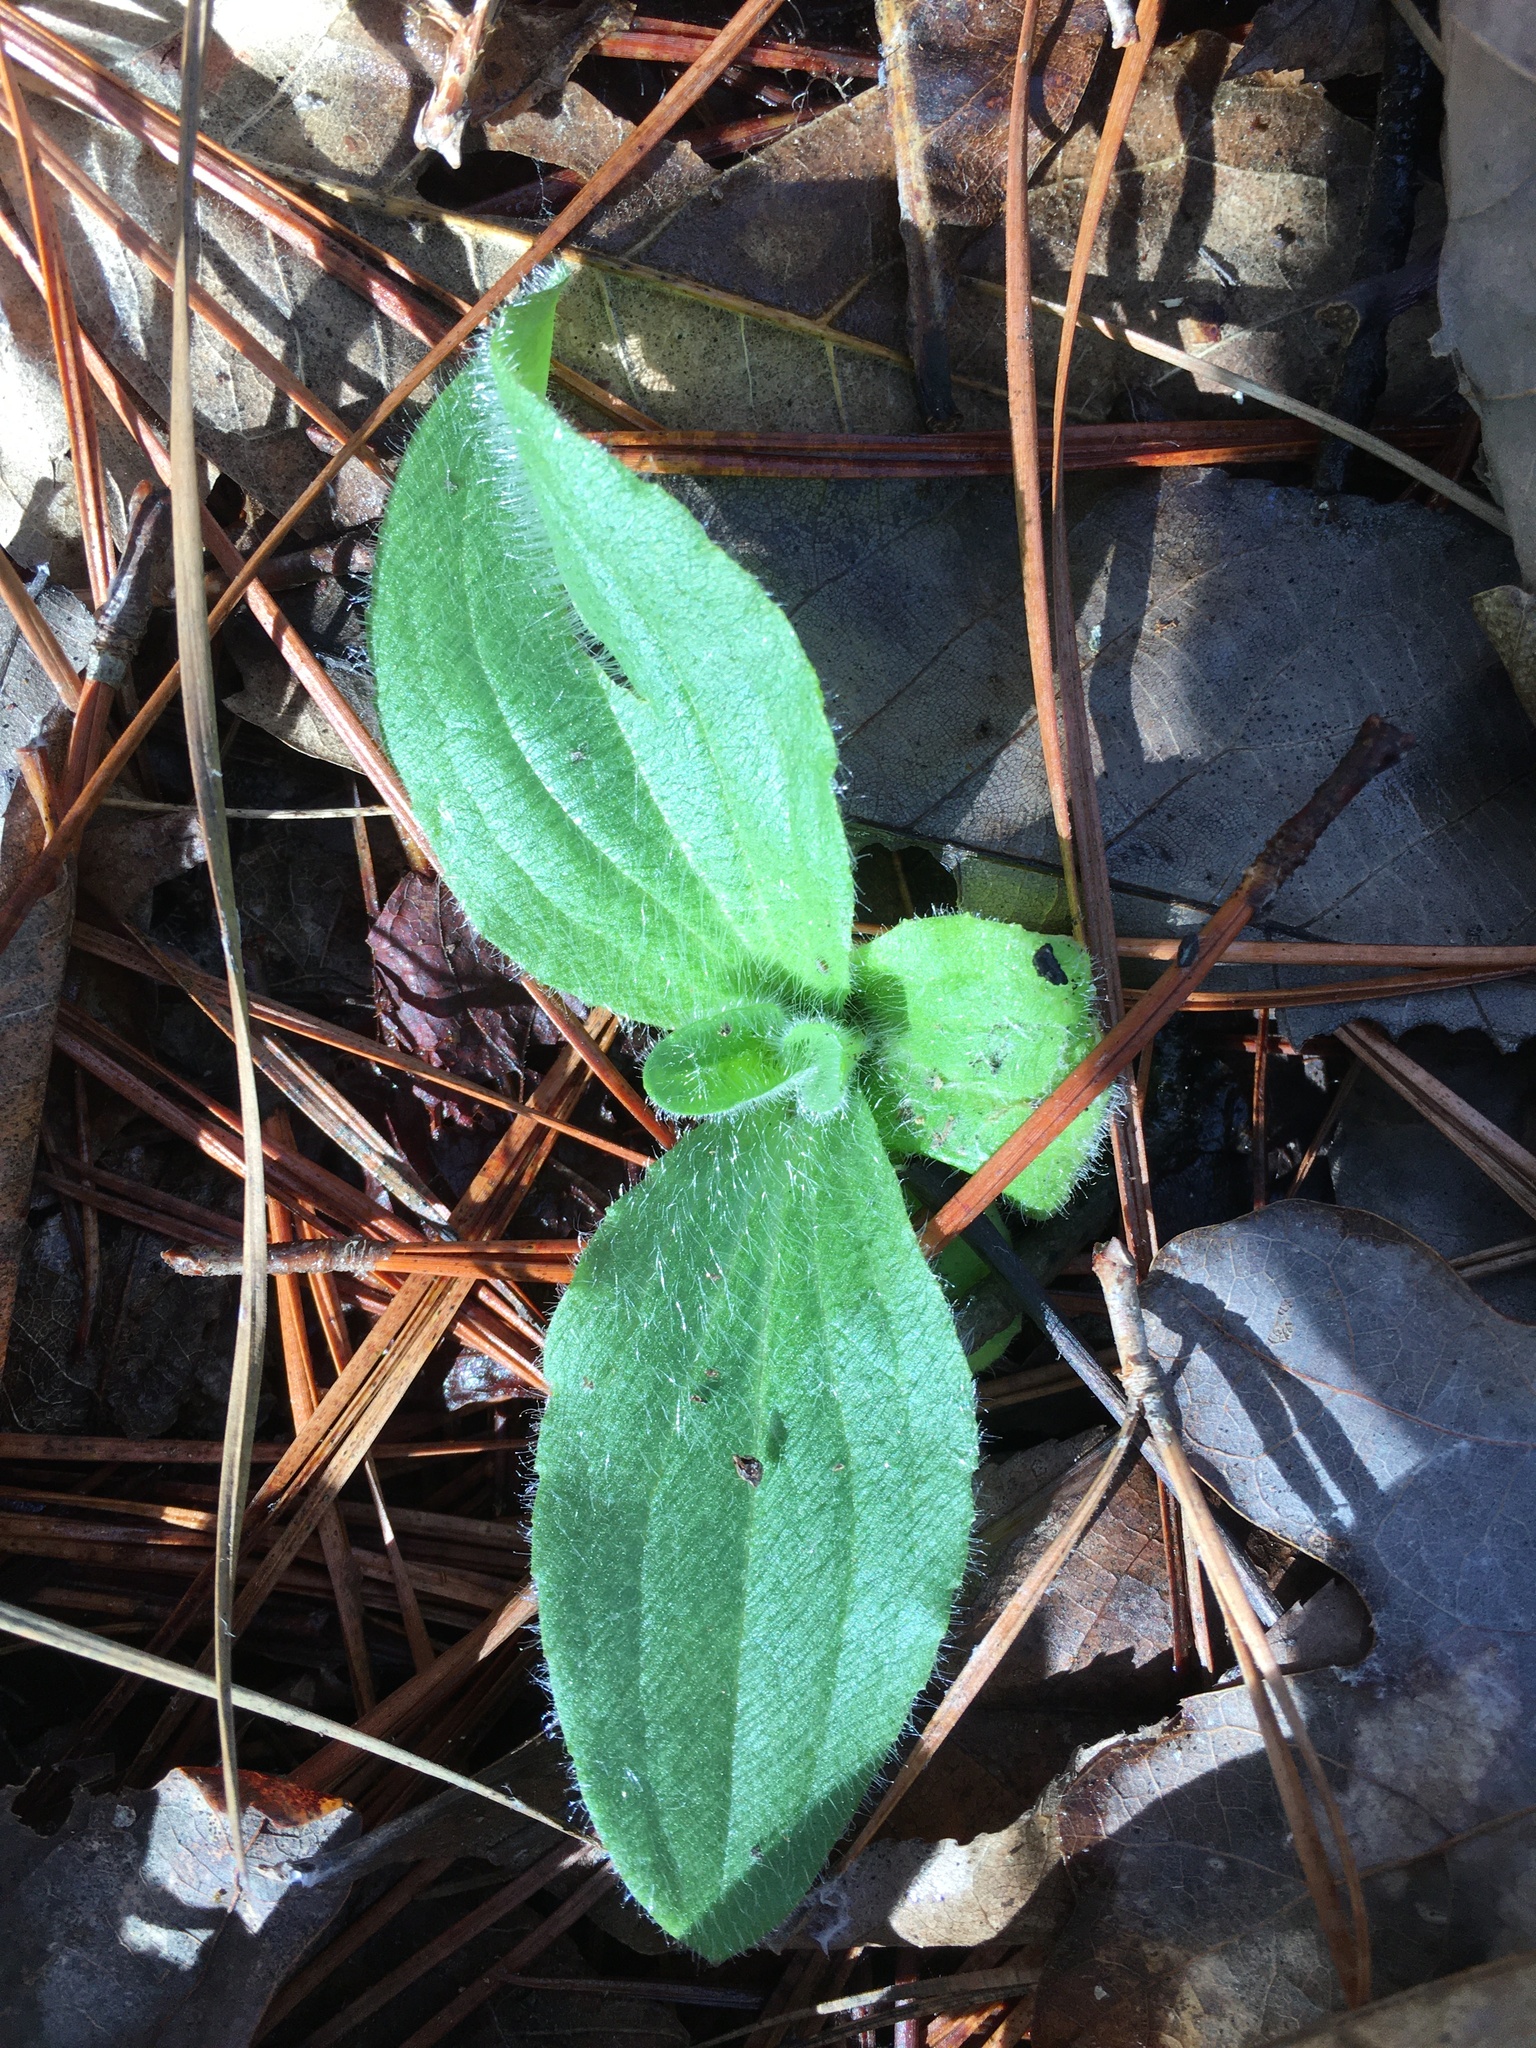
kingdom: Plantae
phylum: Tracheophyta
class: Magnoliopsida
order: Asterales
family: Asteraceae
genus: Arnica
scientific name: Arnica acaulis
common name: Common leopardbane
